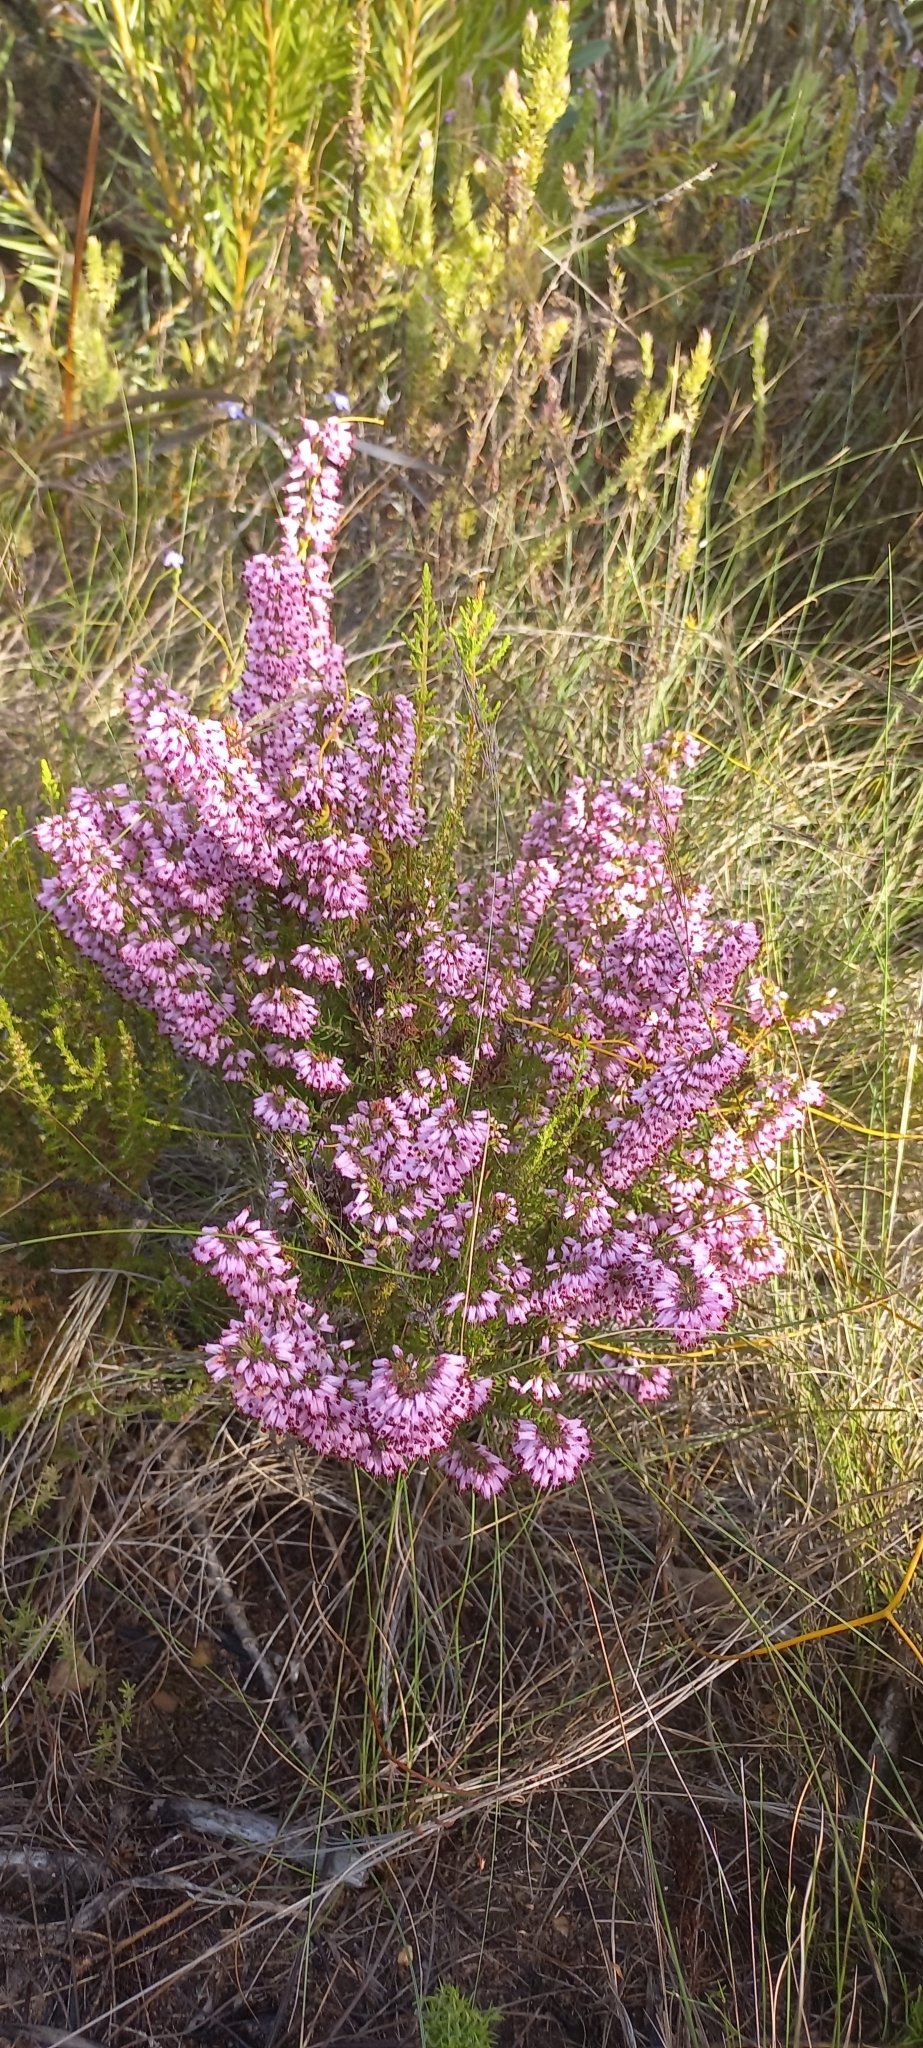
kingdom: Plantae
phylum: Tracheophyta
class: Magnoliopsida
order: Ericales
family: Ericaceae
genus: Erica
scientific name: Erica nudiflora
